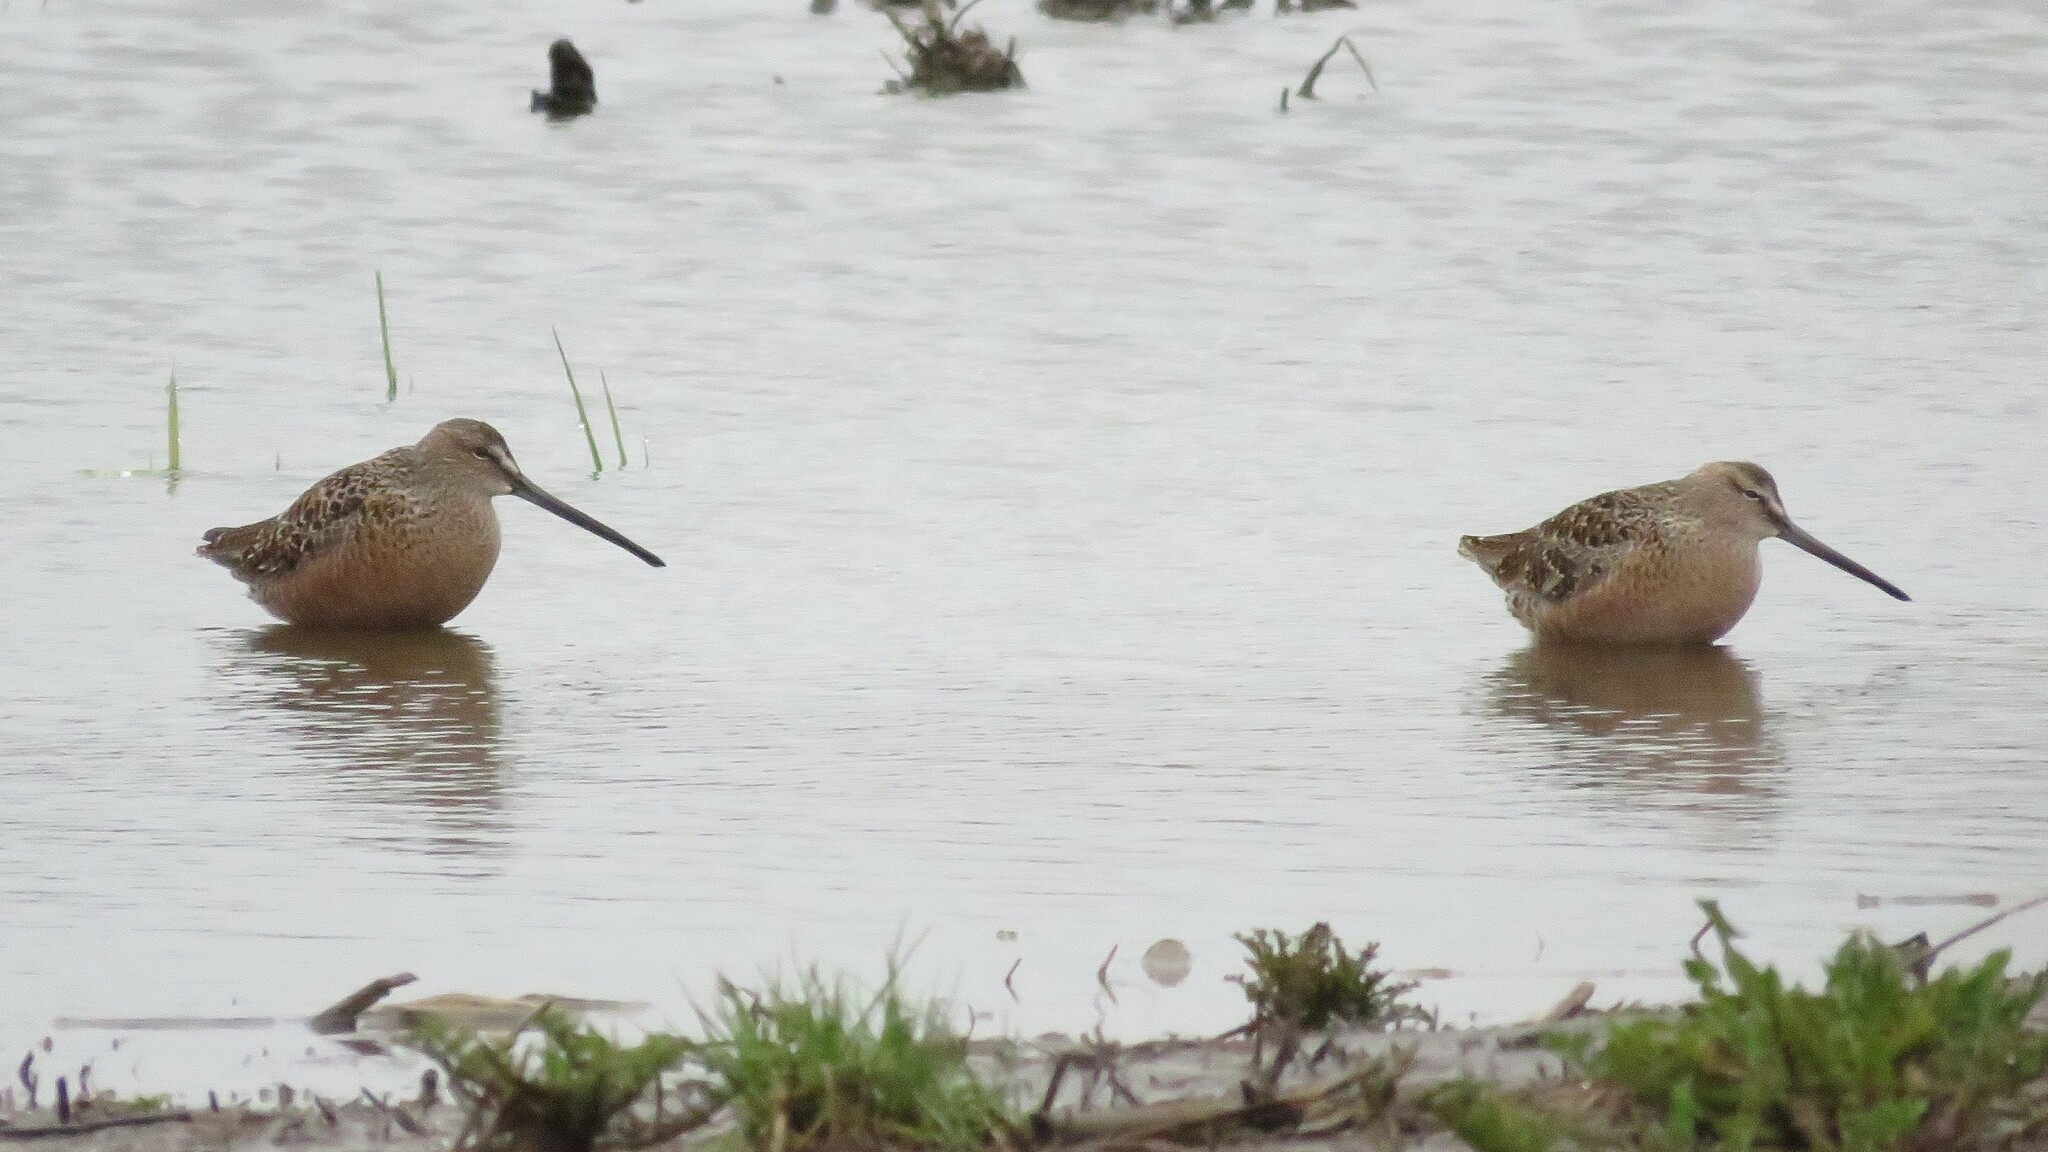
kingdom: Animalia
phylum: Chordata
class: Aves
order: Charadriiformes
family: Scolopacidae
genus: Limnodromus
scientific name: Limnodromus scolopaceus
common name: Long-billed dowitcher
